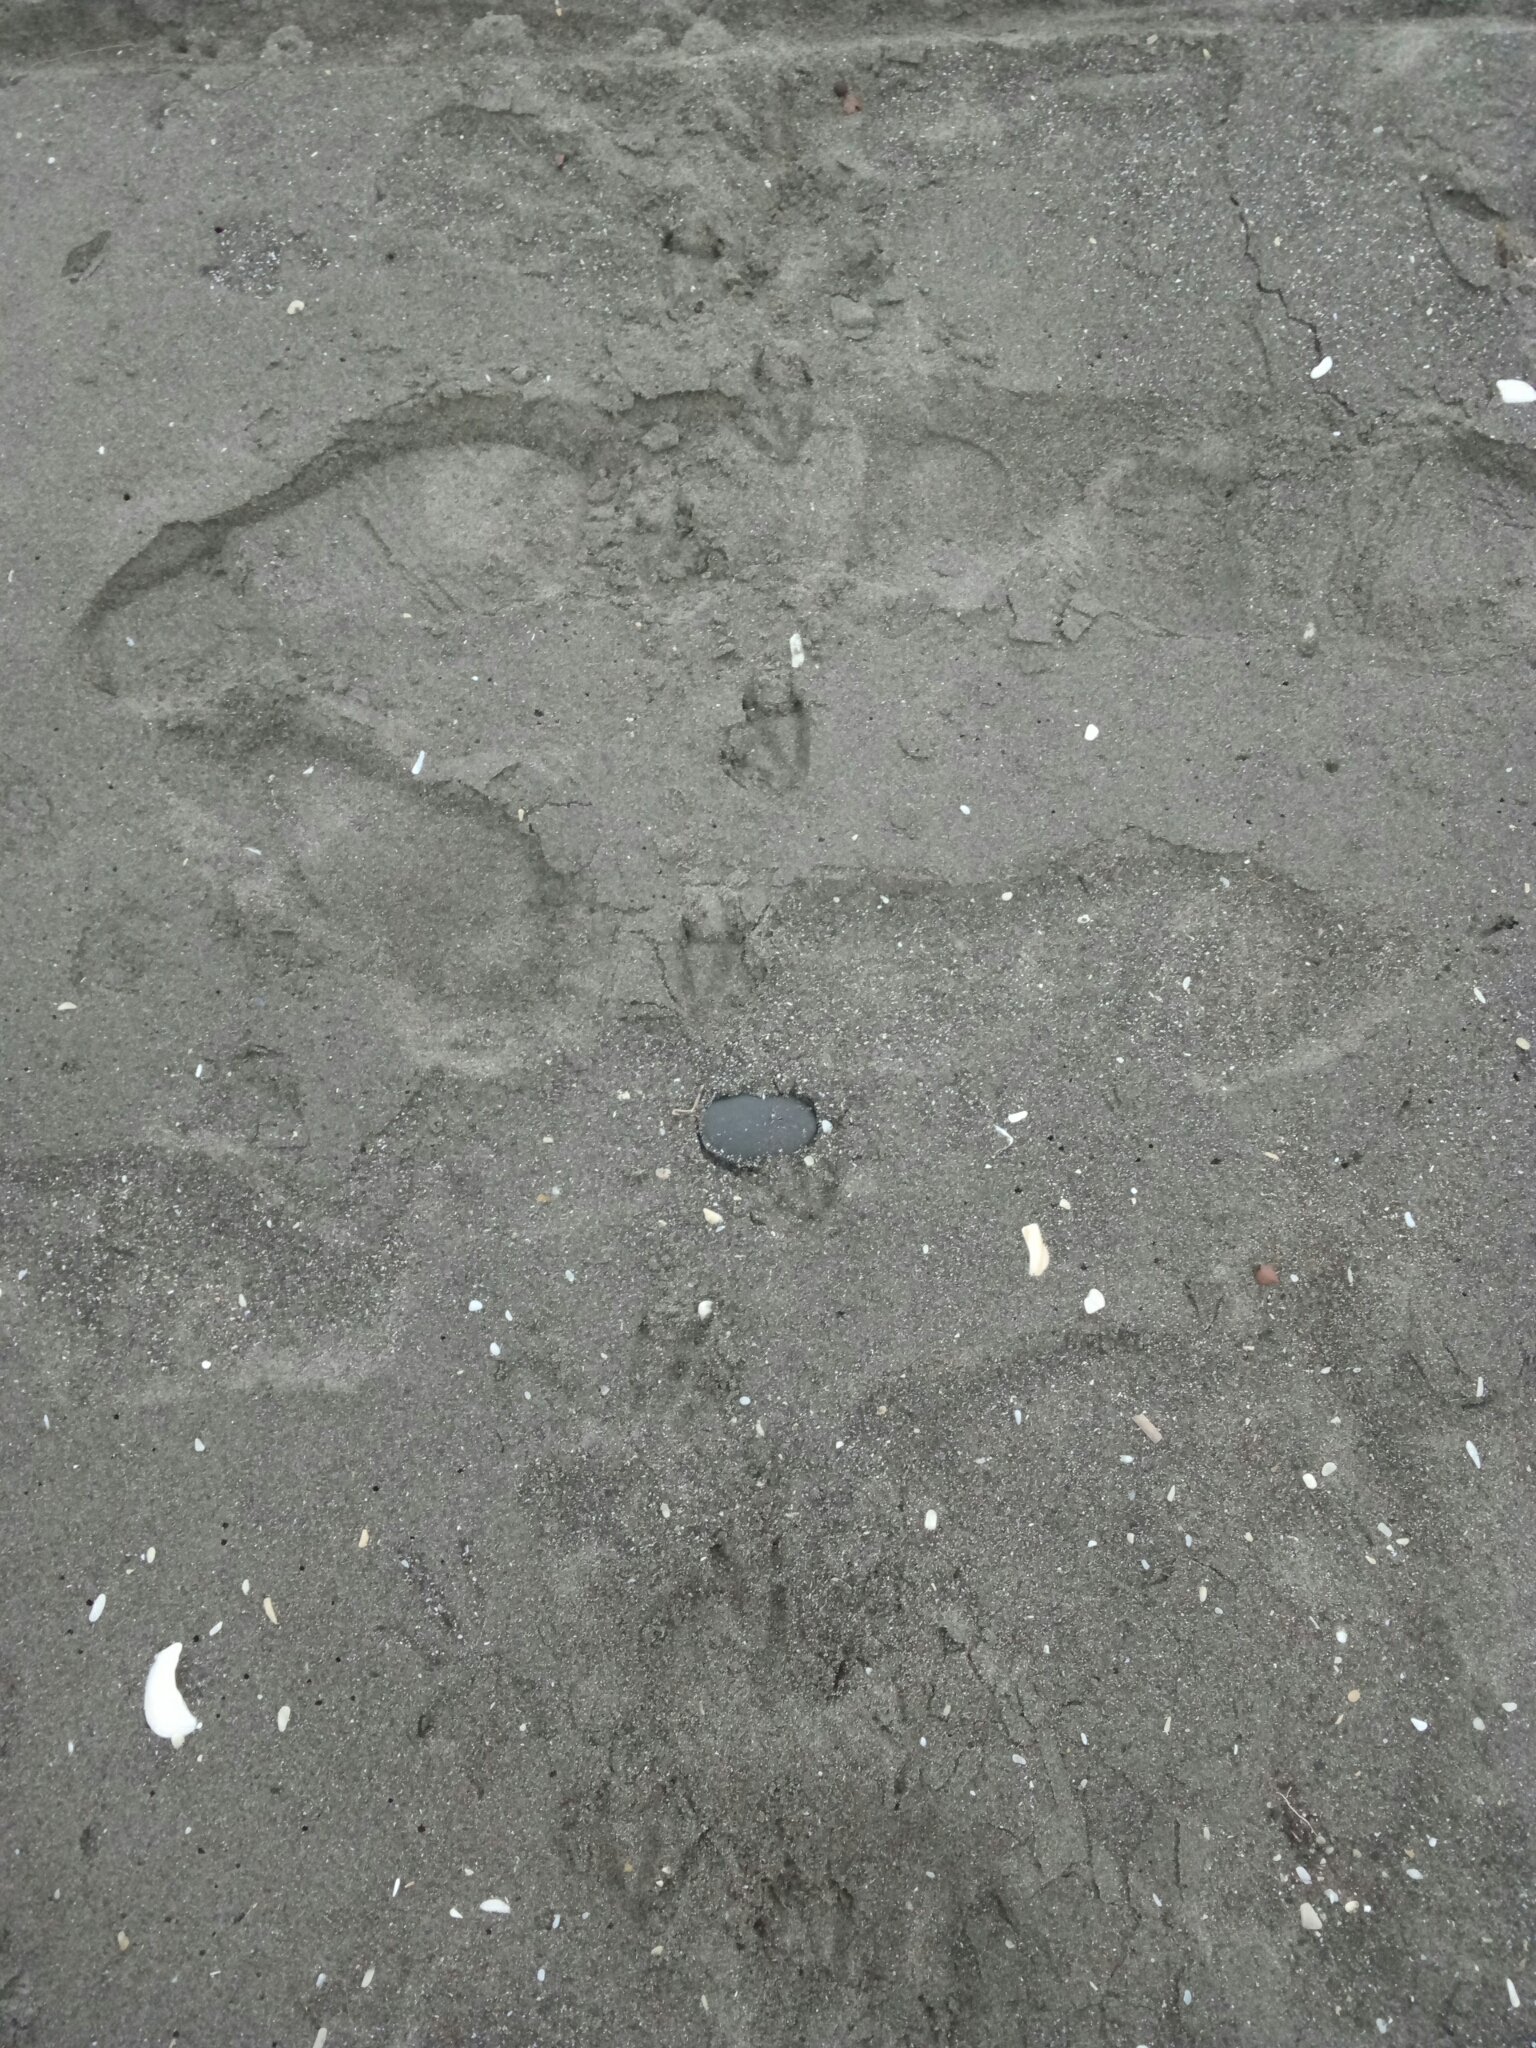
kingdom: Animalia
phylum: Chordata
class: Aves
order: Sphenisciformes
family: Spheniscidae
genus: Eudyptula
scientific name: Eudyptula minor
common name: Little penguin
